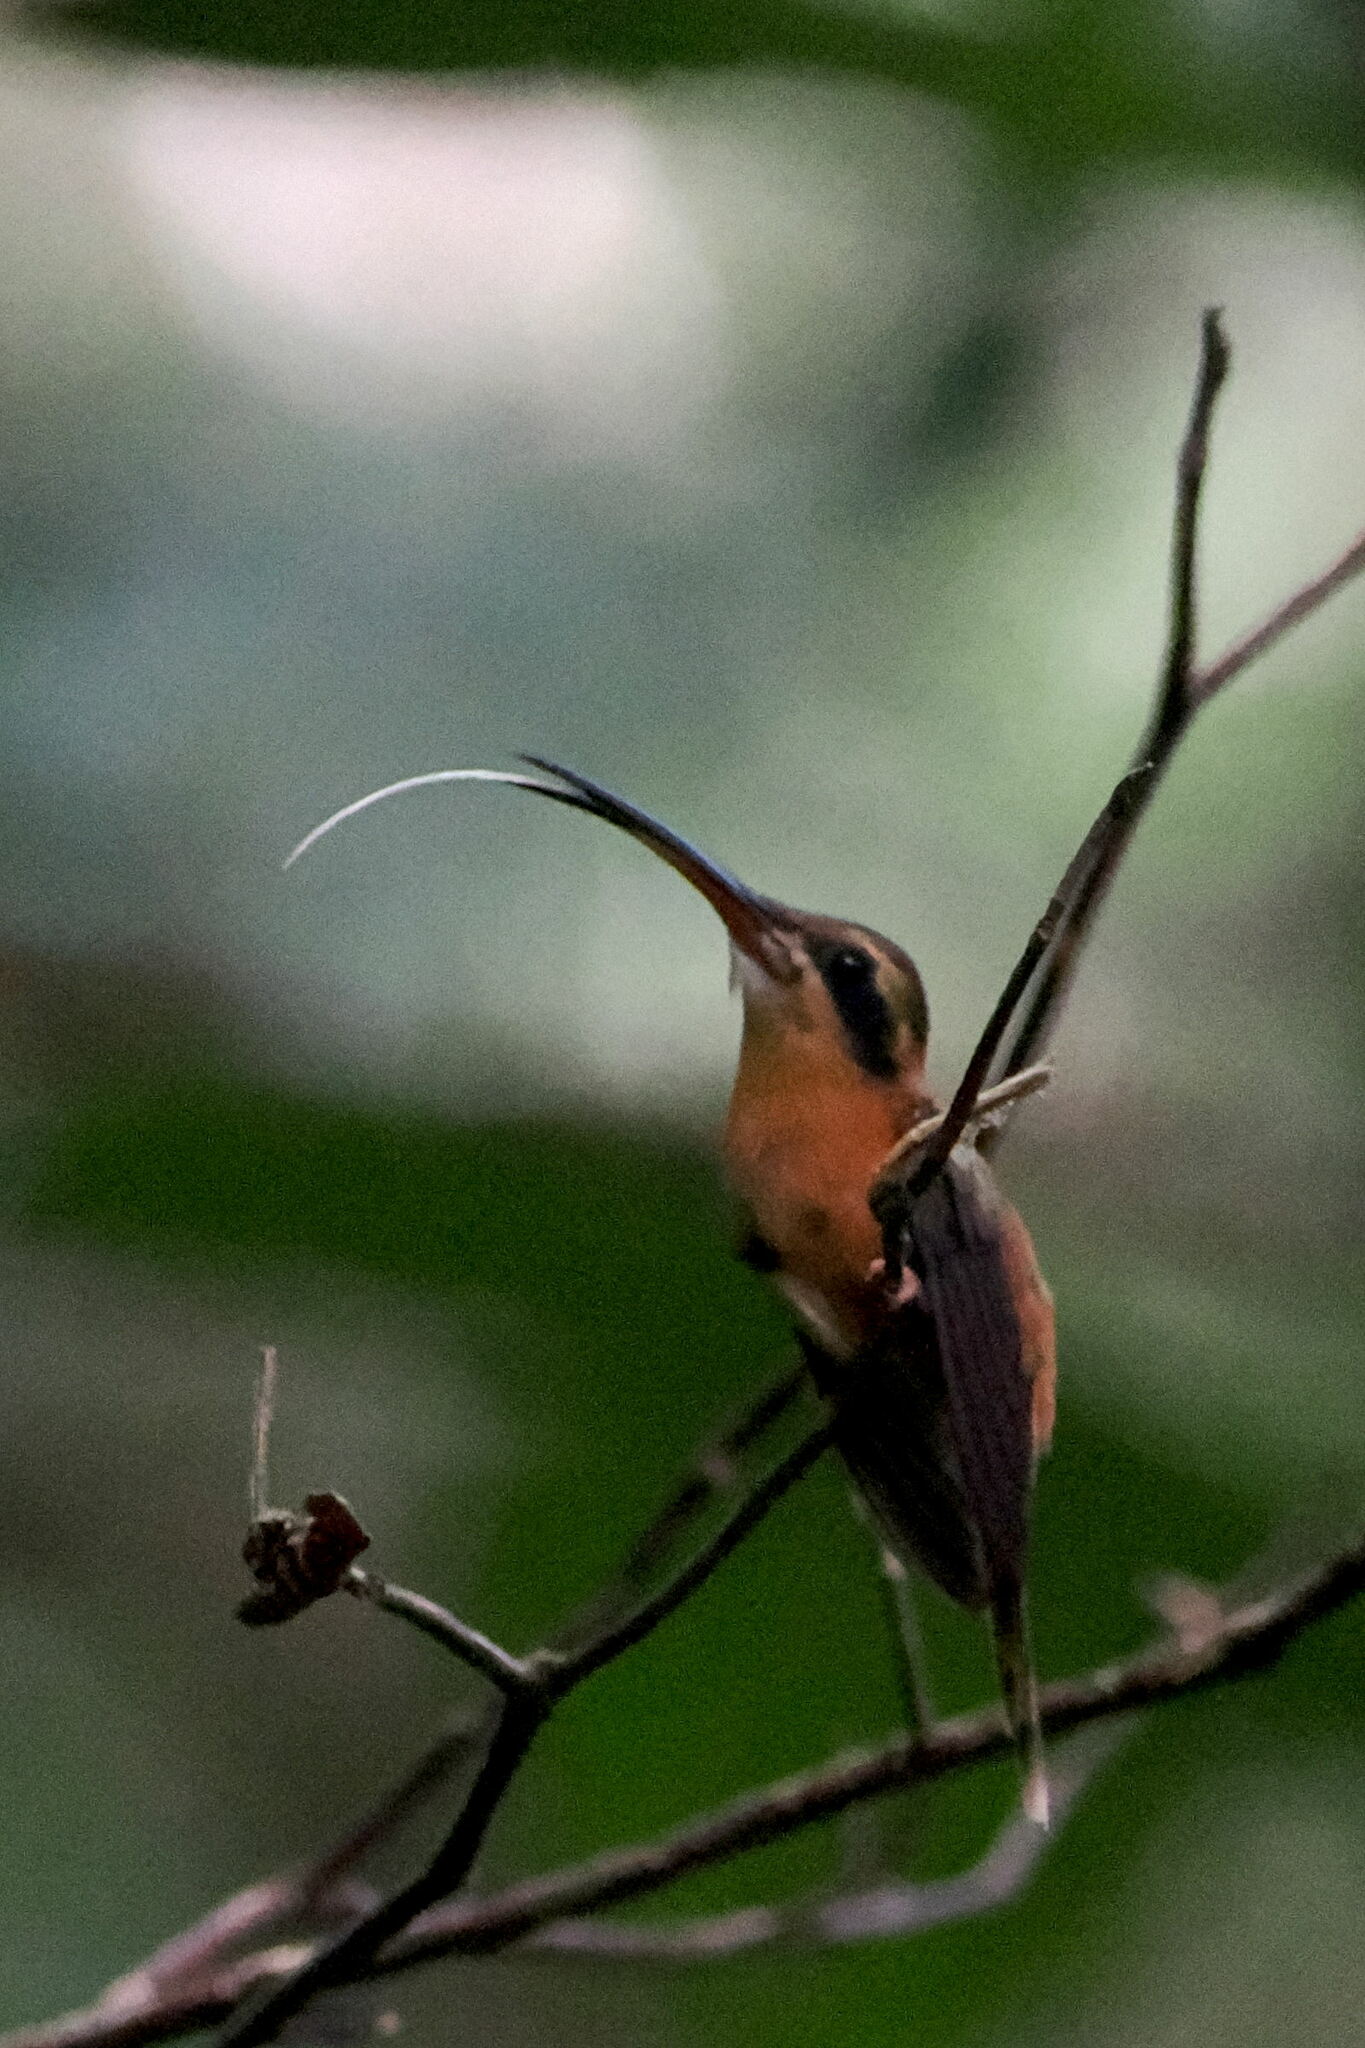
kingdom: Animalia
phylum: Chordata
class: Aves
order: Apodiformes
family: Trochilidae
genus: Phaethornis
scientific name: Phaethornis ruber
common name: Reddish hermit
